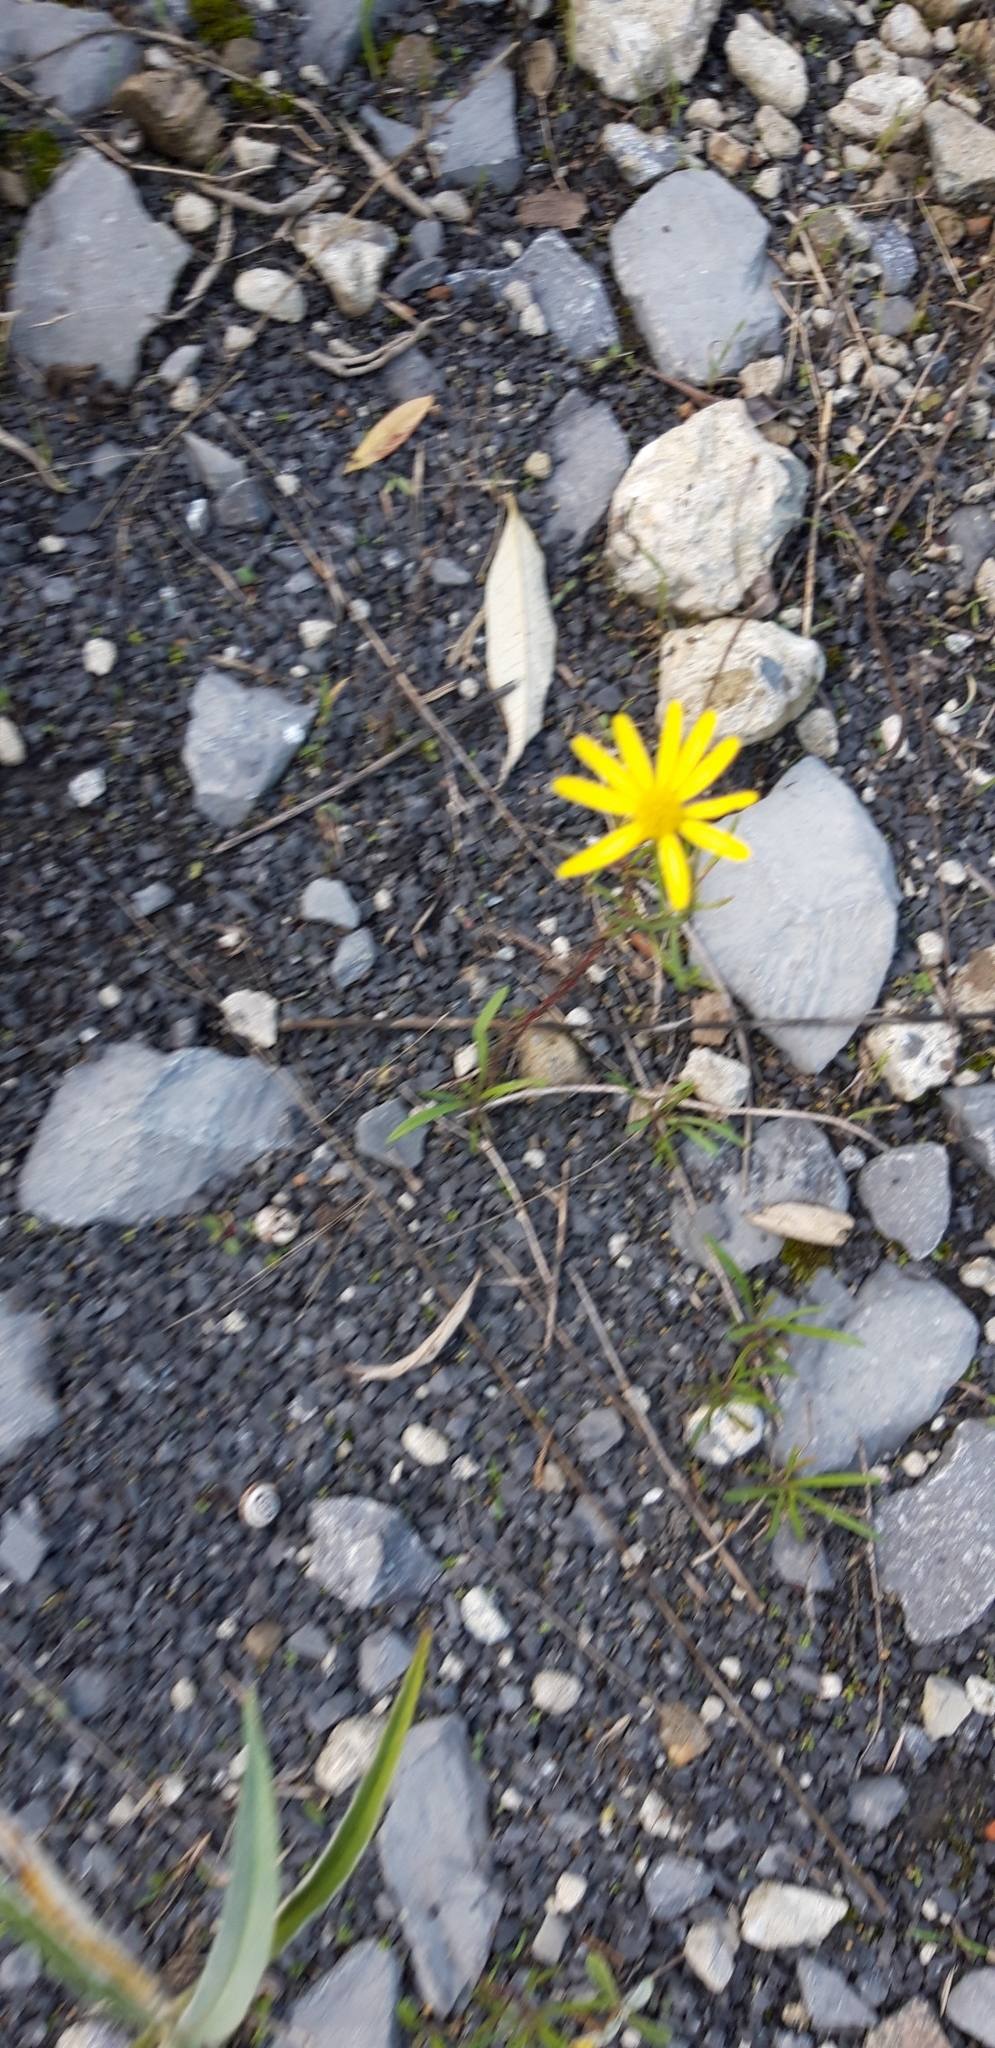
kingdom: Plantae
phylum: Tracheophyta
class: Magnoliopsida
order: Asterales
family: Asteraceae
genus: Senecio
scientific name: Senecio inaequidens
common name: Narrow-leaved ragwort
